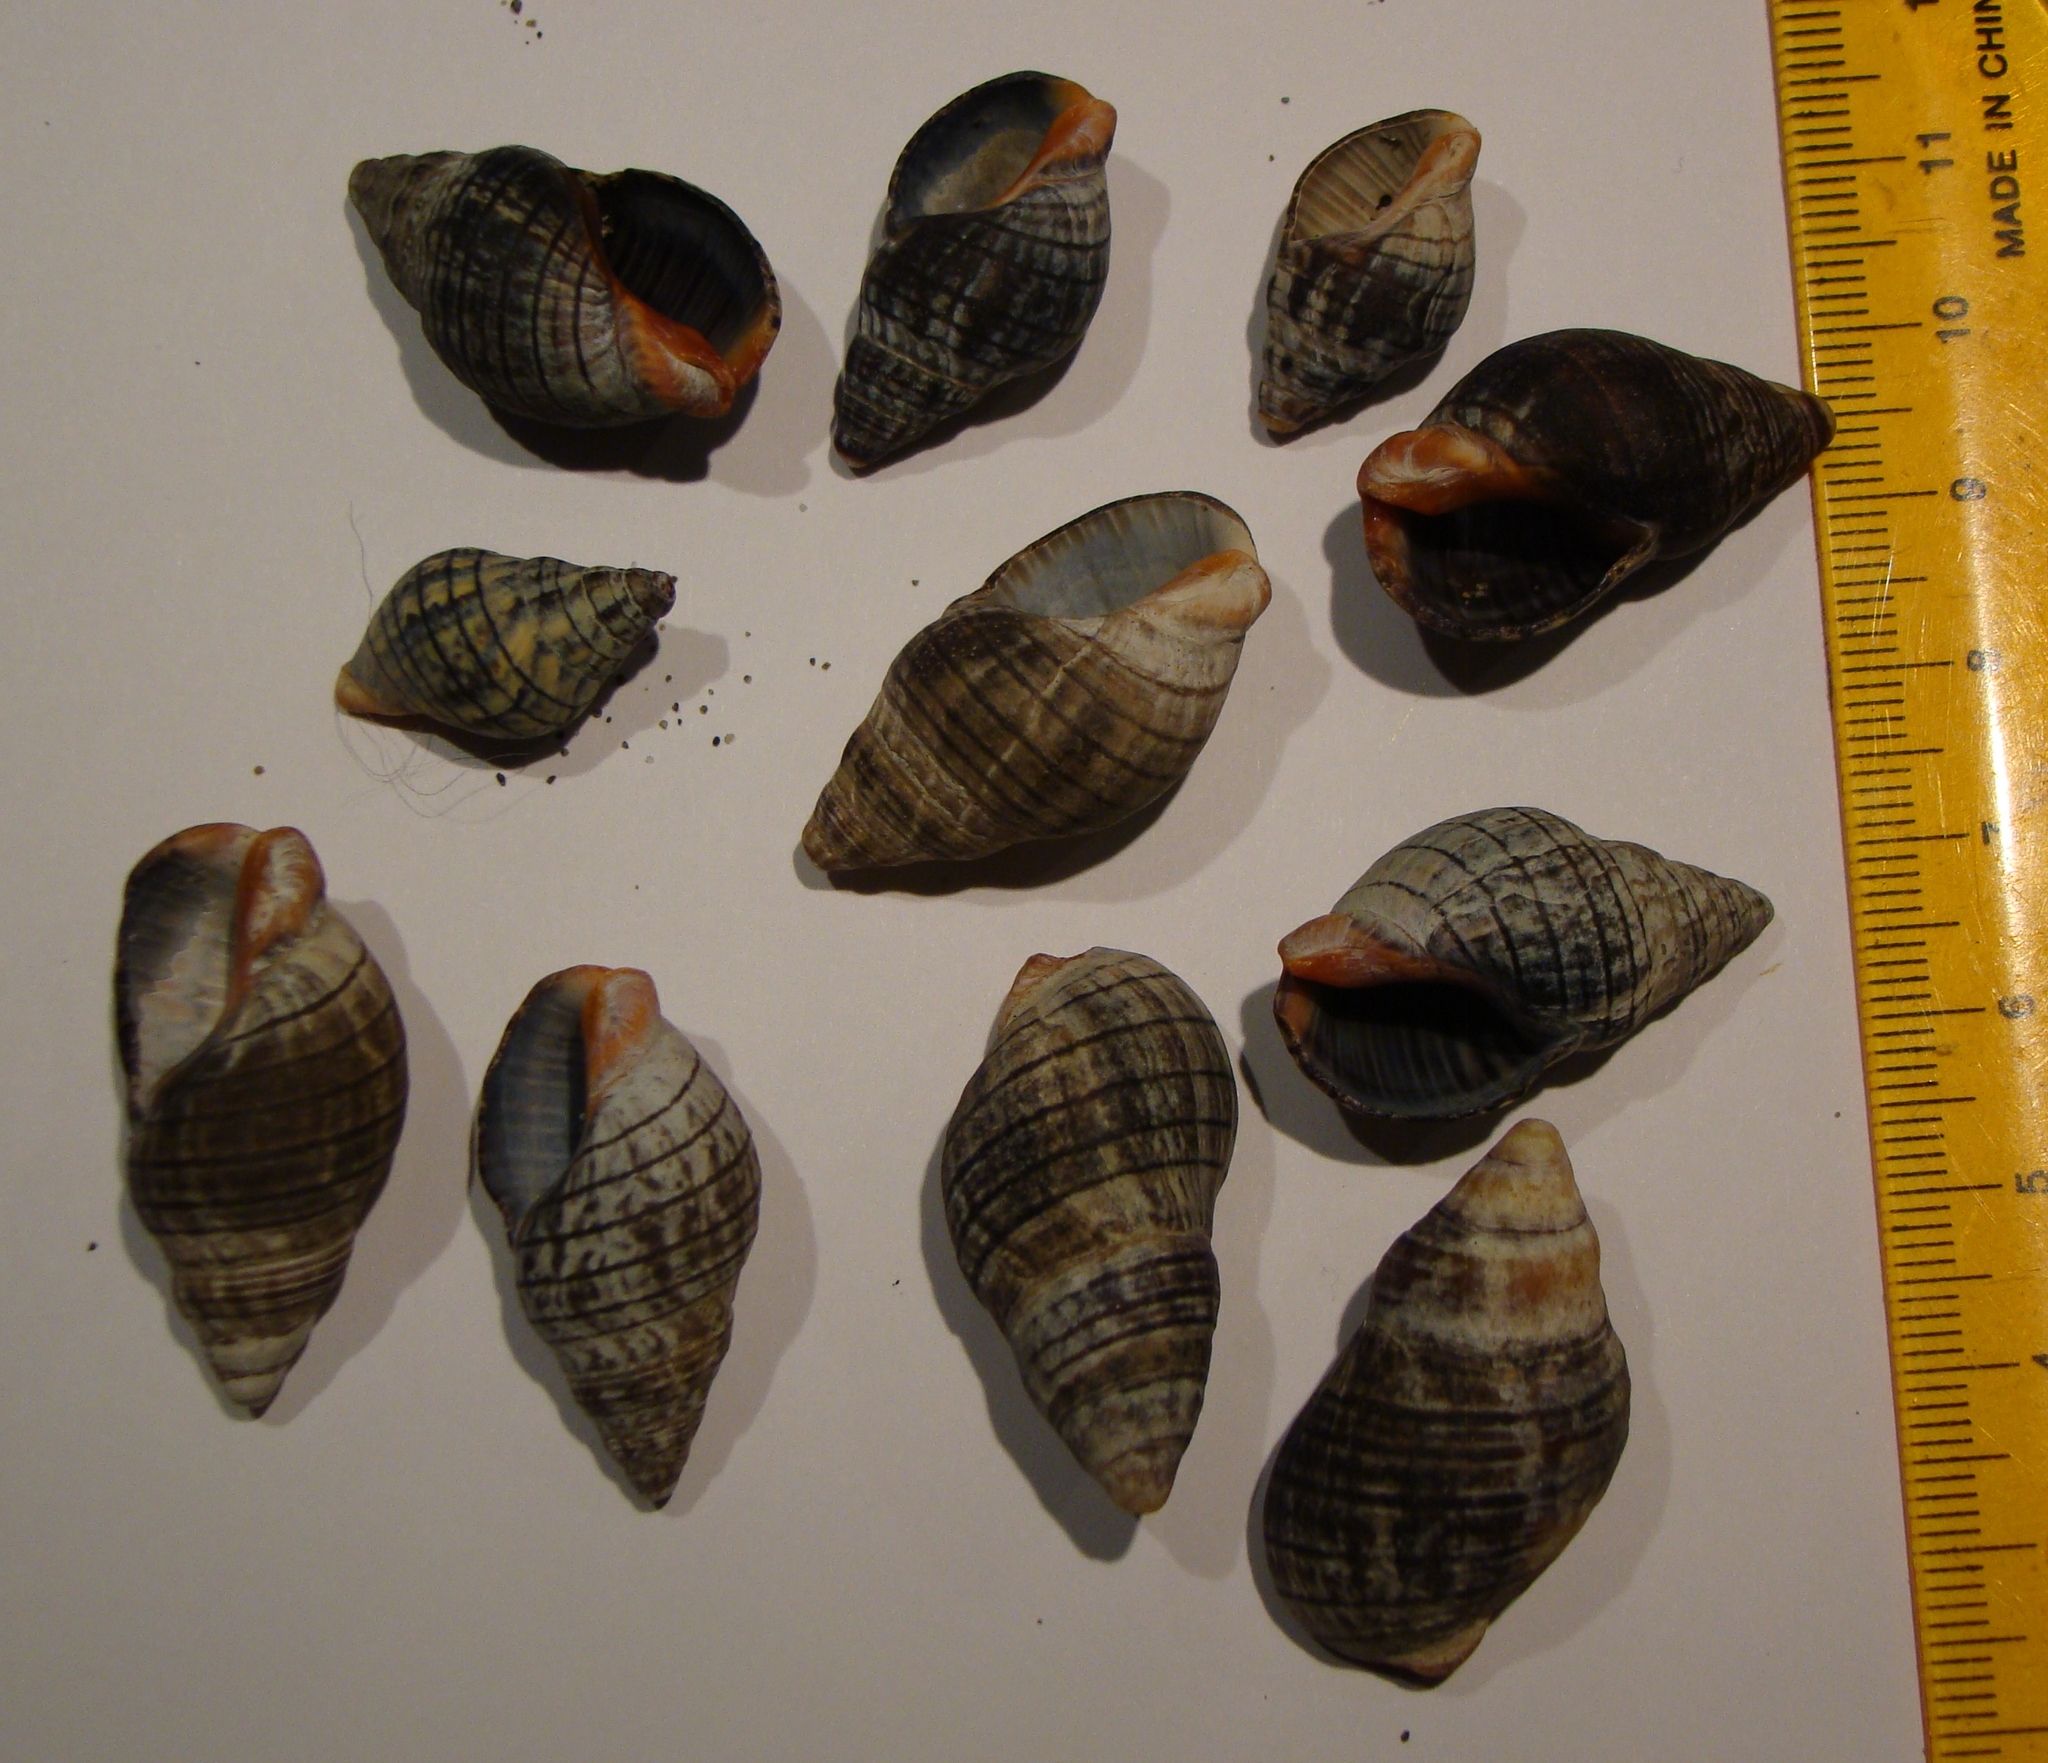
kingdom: Animalia
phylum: Mollusca
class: Gastropoda
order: Neogastropoda
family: Cominellidae
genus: Cominella
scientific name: Cominella virgata
